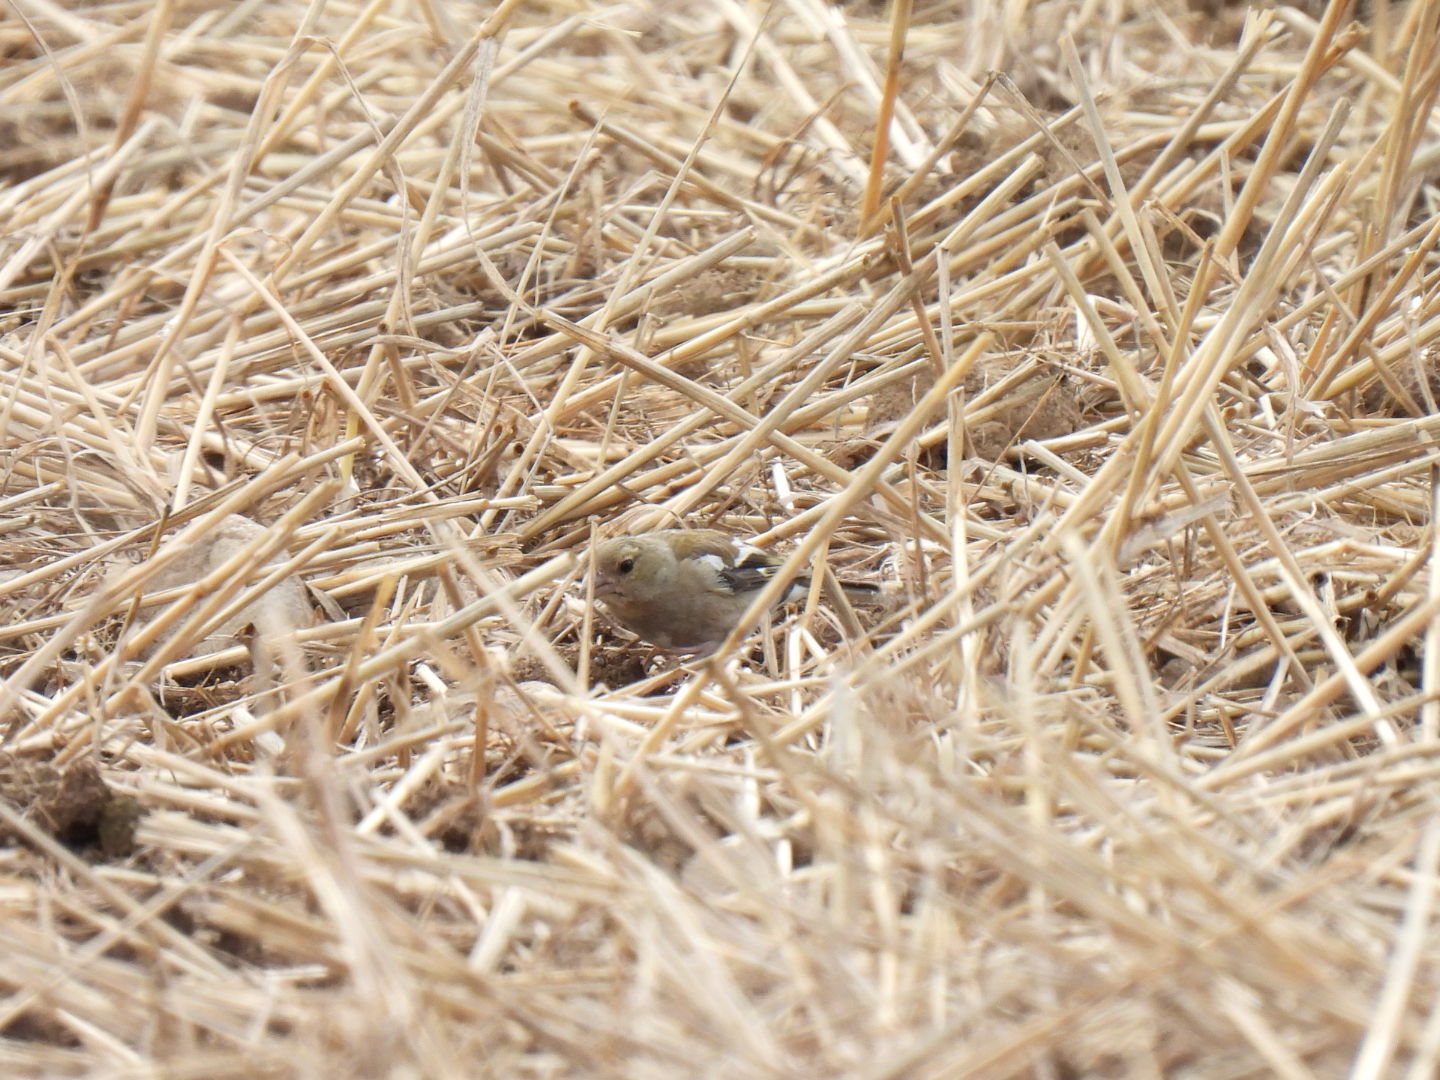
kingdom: Animalia
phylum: Chordata
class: Aves
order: Passeriformes
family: Fringillidae
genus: Fringilla
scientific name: Fringilla coelebs
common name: Common chaffinch
